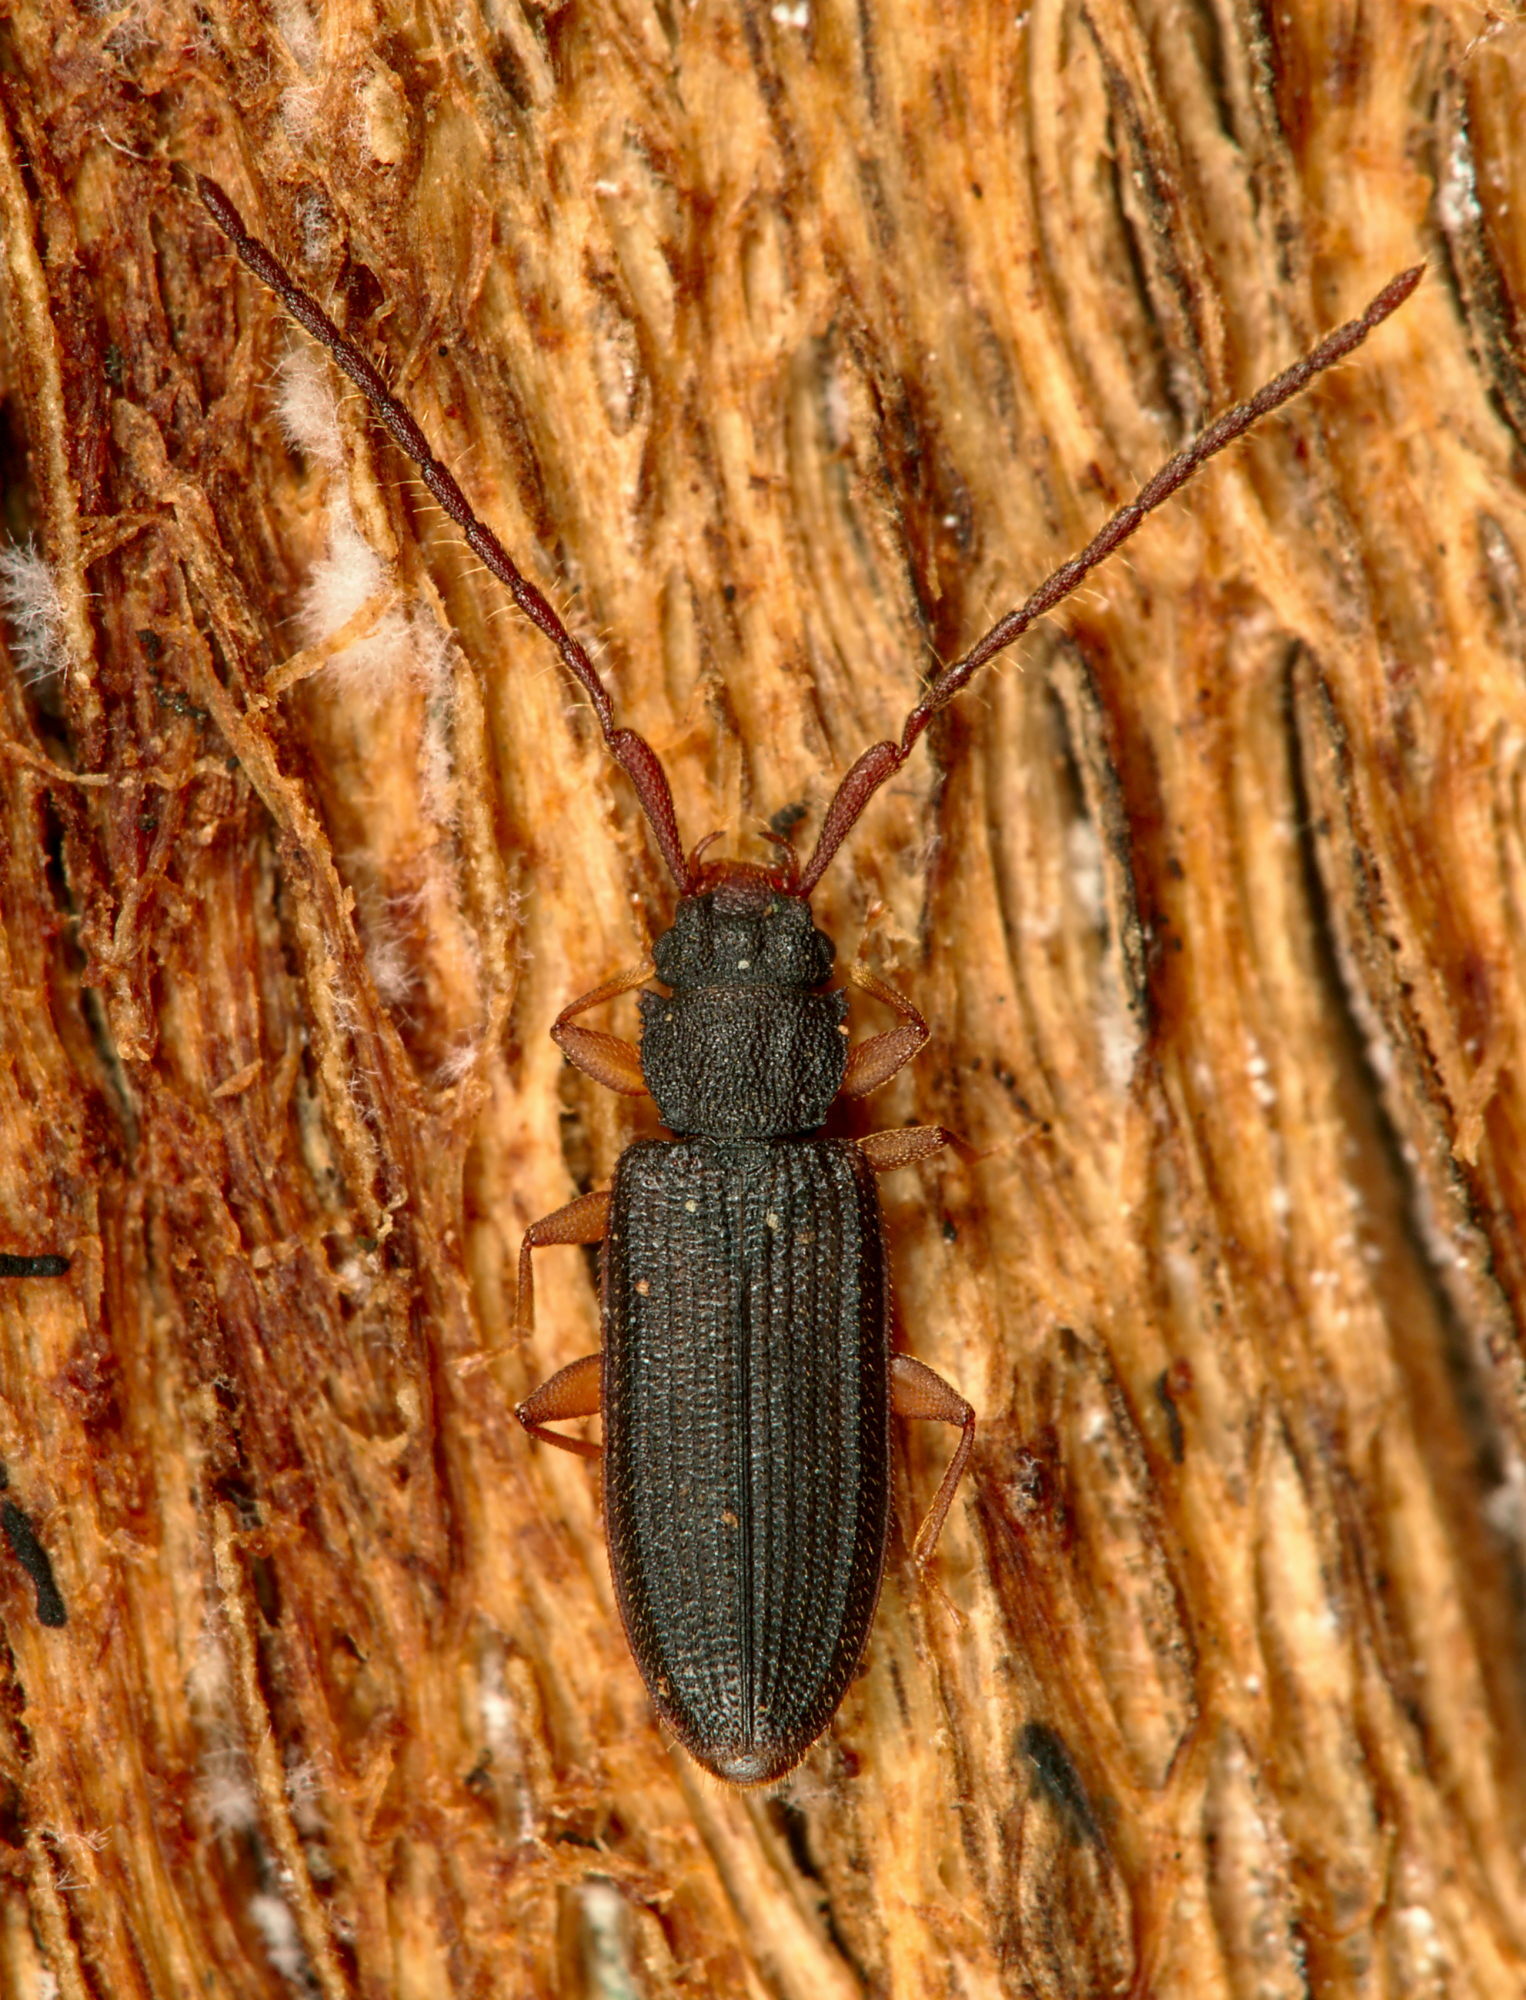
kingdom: Animalia
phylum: Arthropoda
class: Insecta
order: Coleoptera
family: Silvanidae
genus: Uleiota
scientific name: Uleiota planatus
